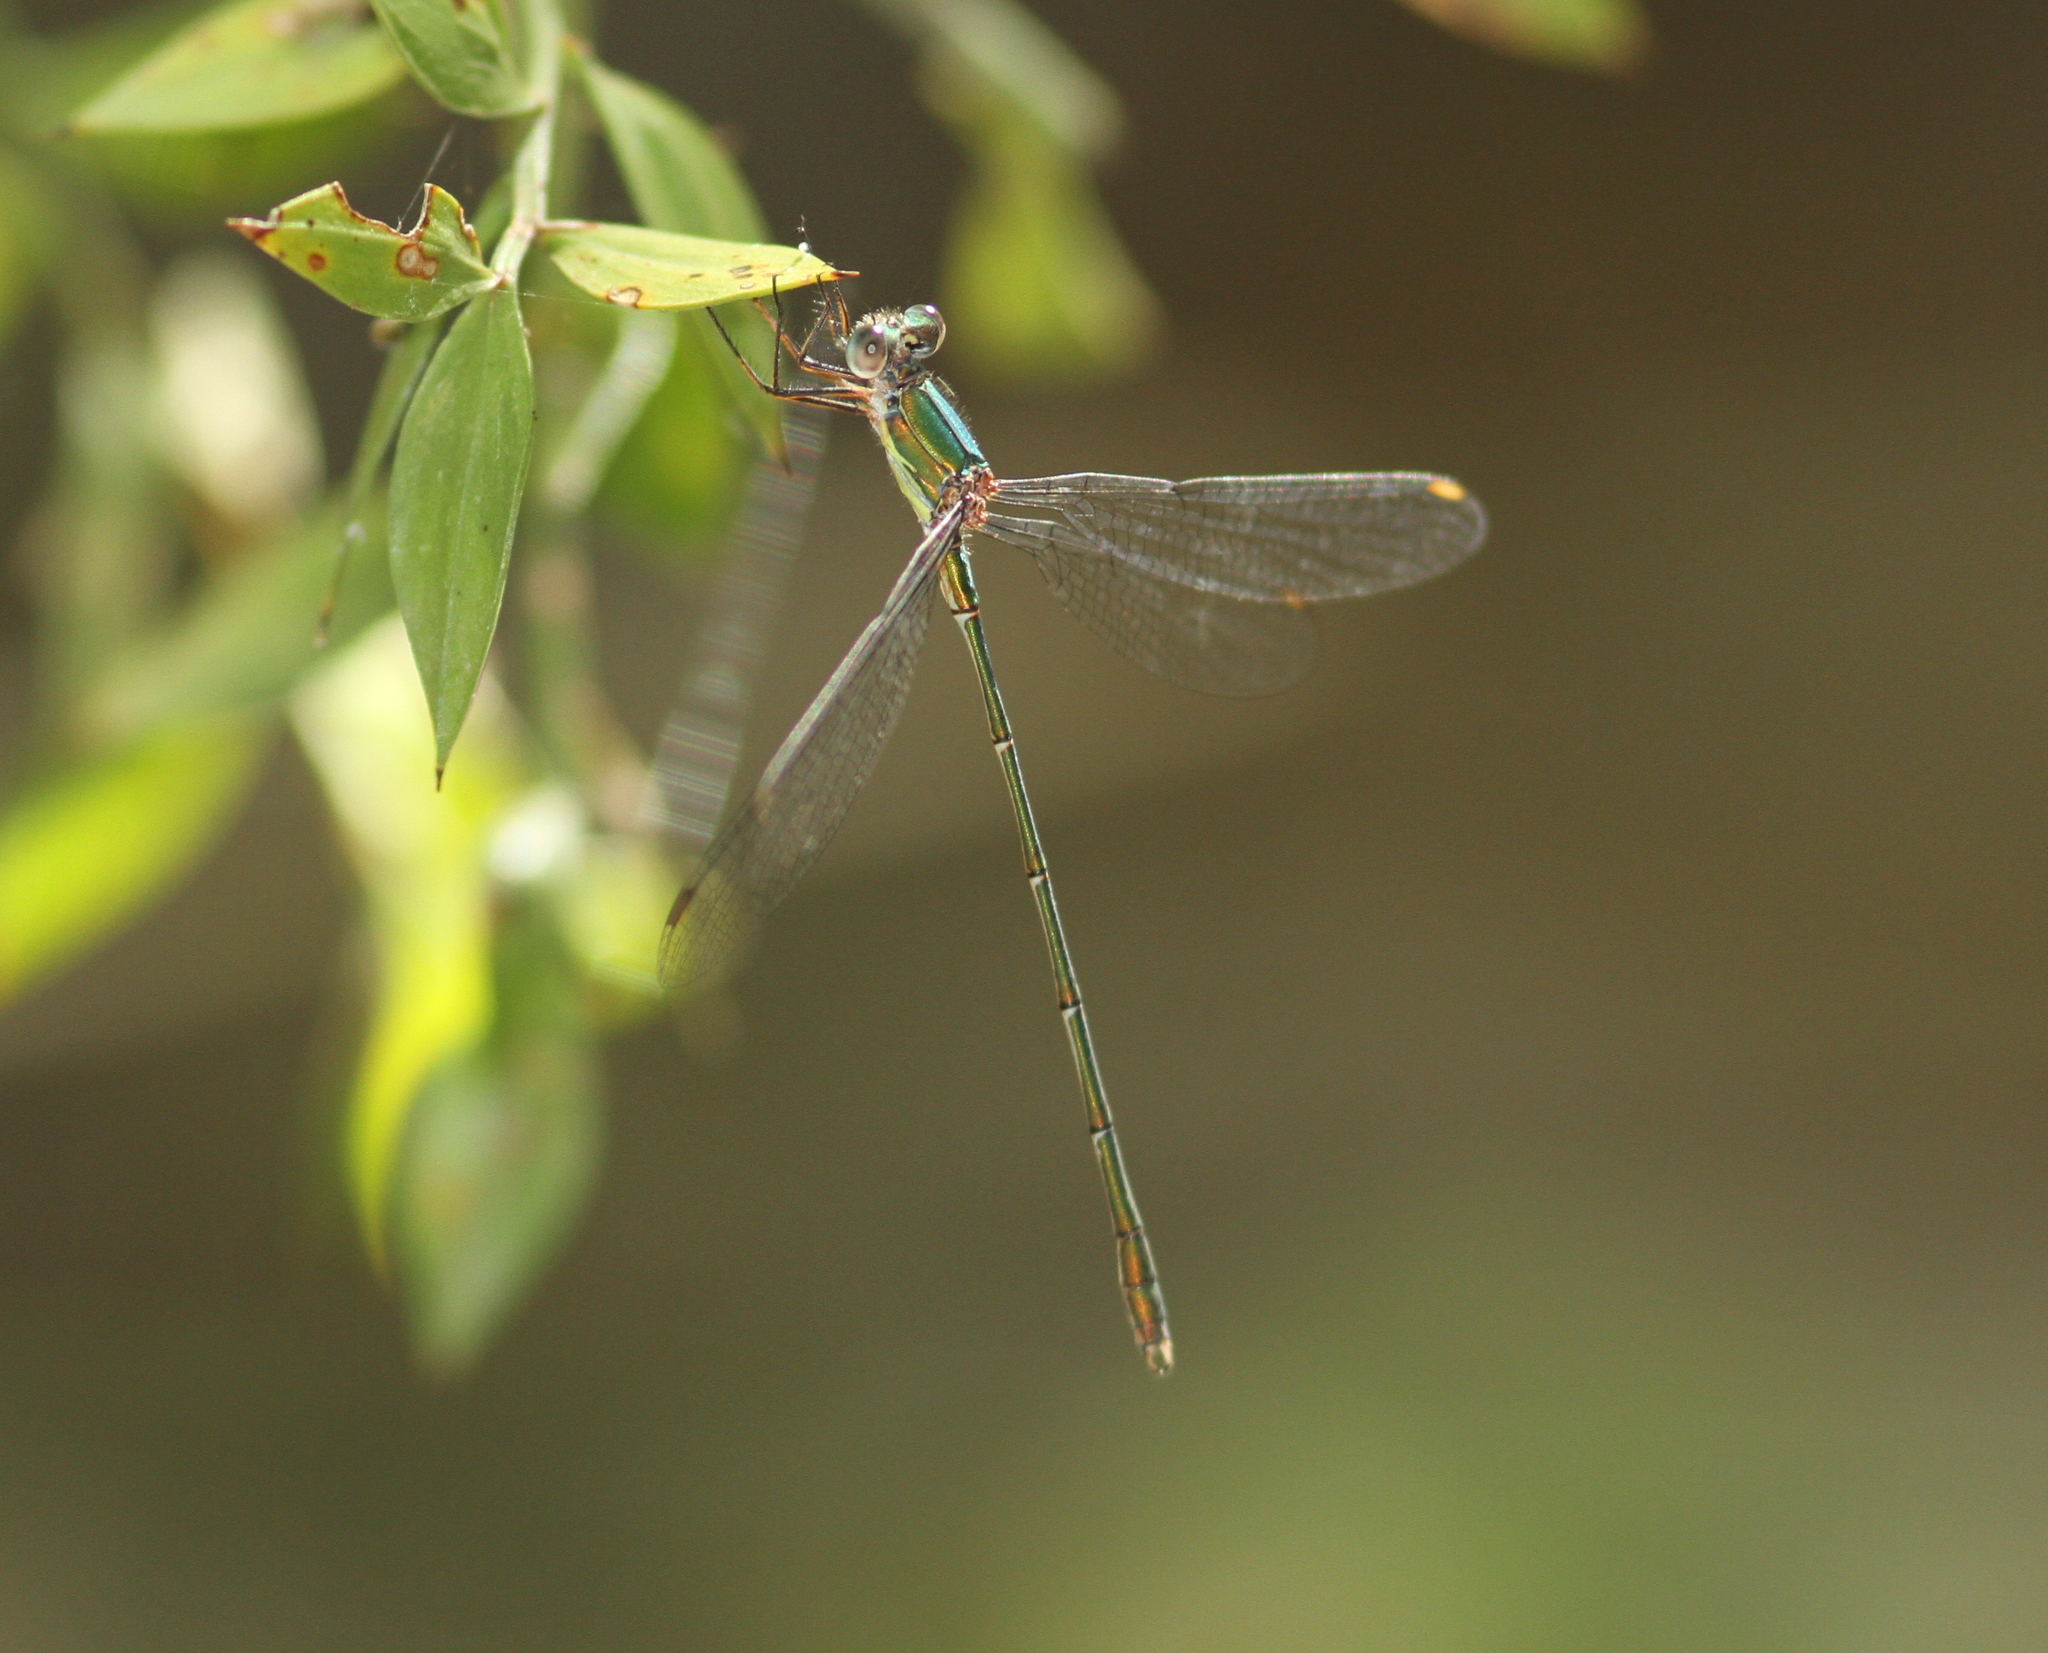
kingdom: Animalia
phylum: Arthropoda
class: Insecta
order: Odonata
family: Lestidae
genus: Chalcolestes
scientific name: Chalcolestes viridis
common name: Green emerald damselfly
